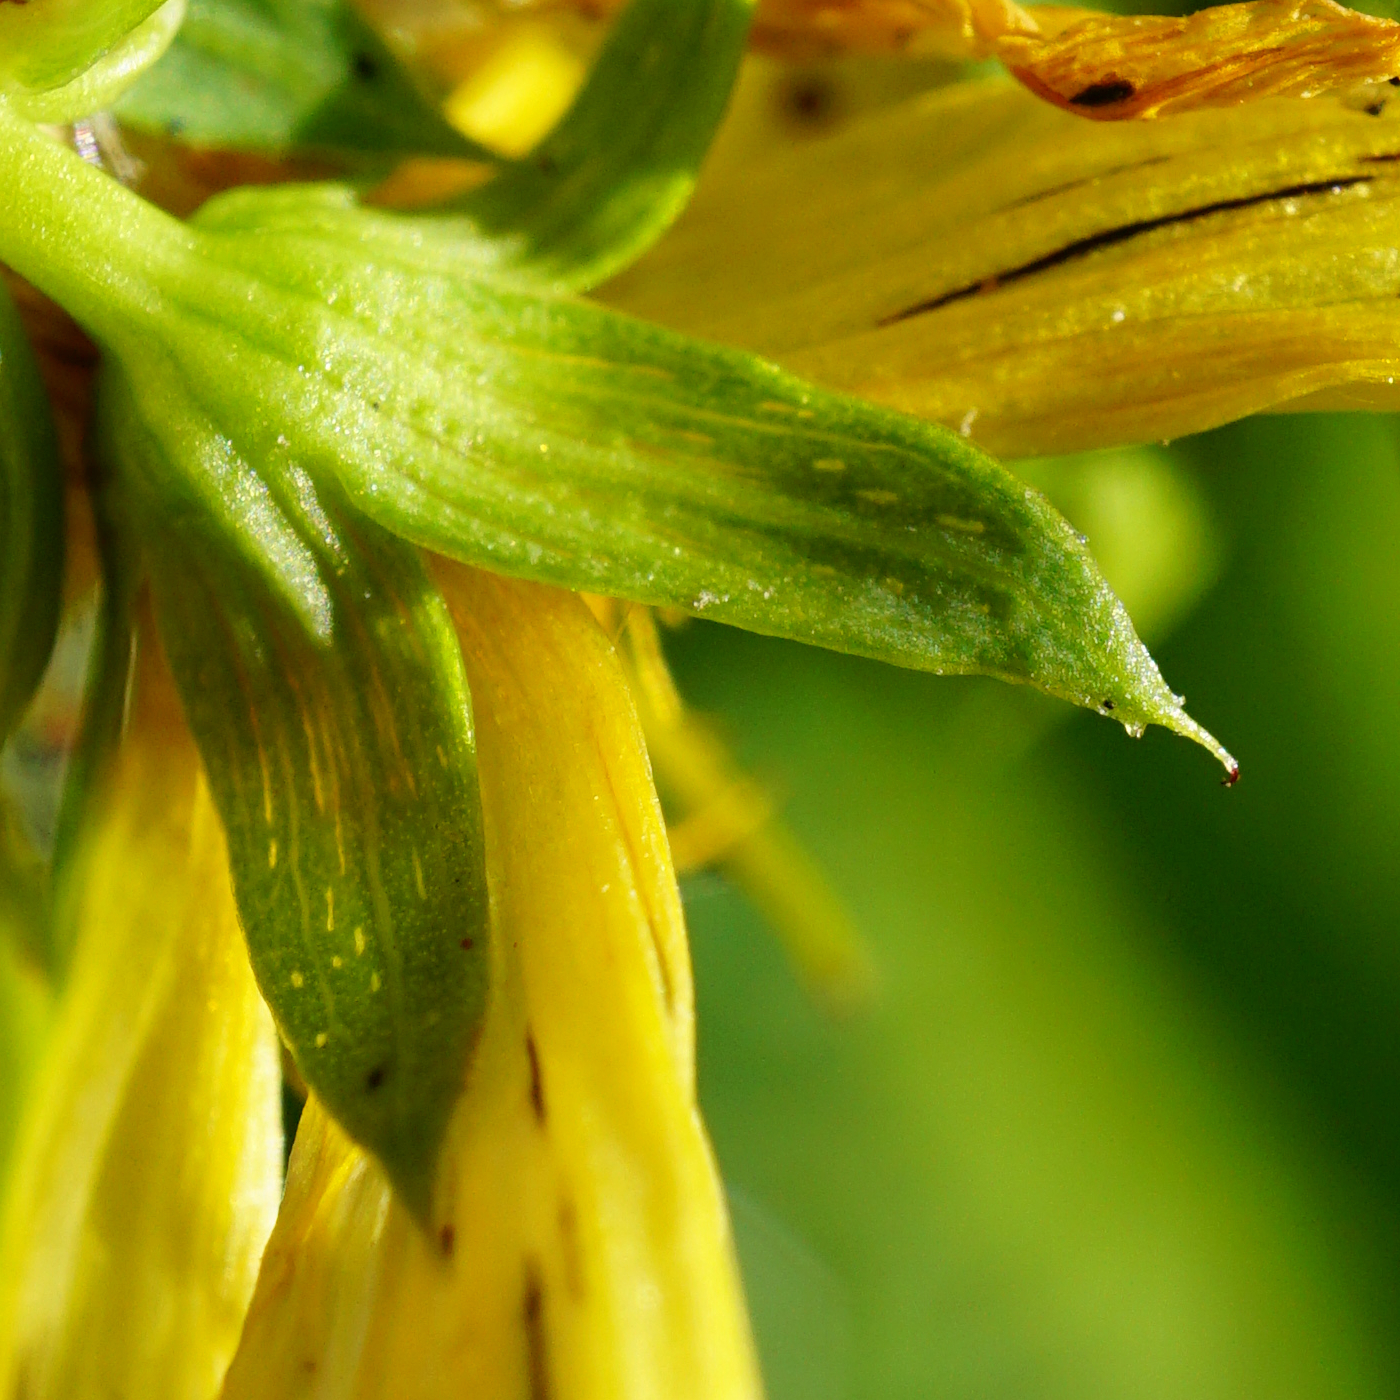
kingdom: Plantae
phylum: Tracheophyta
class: Magnoliopsida
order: Malpighiales
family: Hypericaceae
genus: Hypericum
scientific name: Hypericum desetangsii
